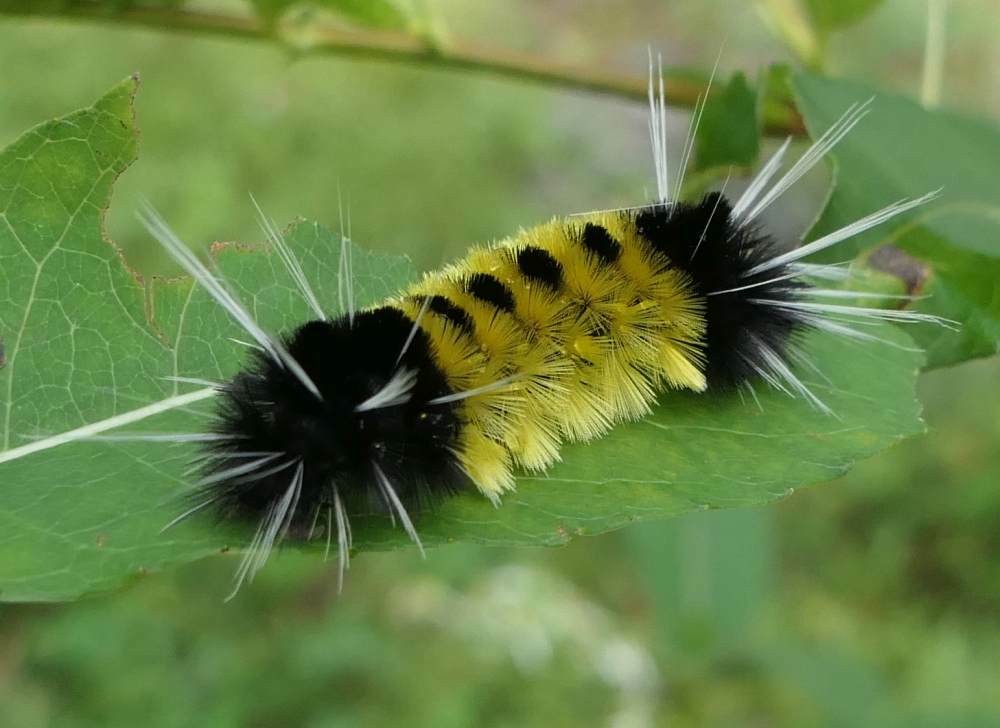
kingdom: Animalia
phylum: Arthropoda
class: Insecta
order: Lepidoptera
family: Erebidae
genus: Lophocampa
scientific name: Lophocampa maculata
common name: Spotted tussock moth
